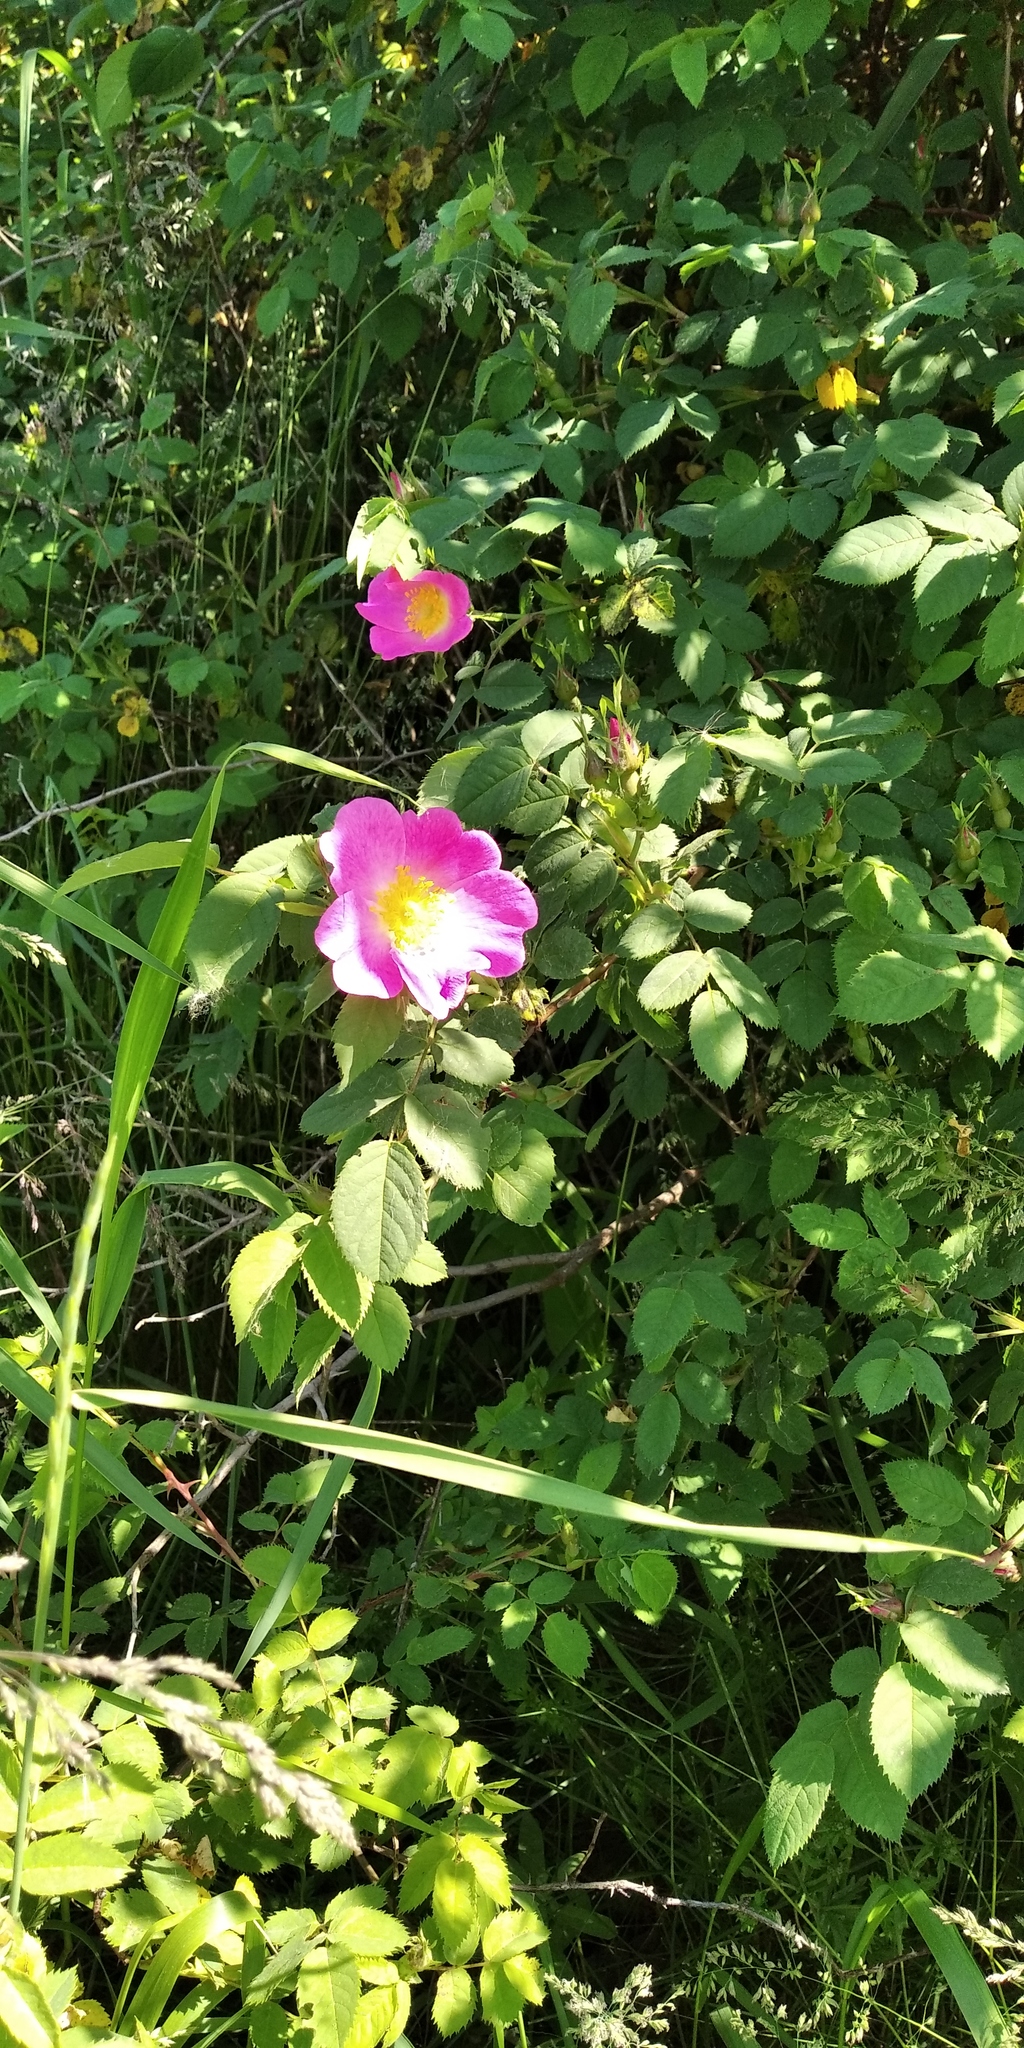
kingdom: Plantae
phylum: Tracheophyta
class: Magnoliopsida
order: Rosales
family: Rosaceae
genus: Rosa
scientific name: Rosa majalis
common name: Cinnamon rose
